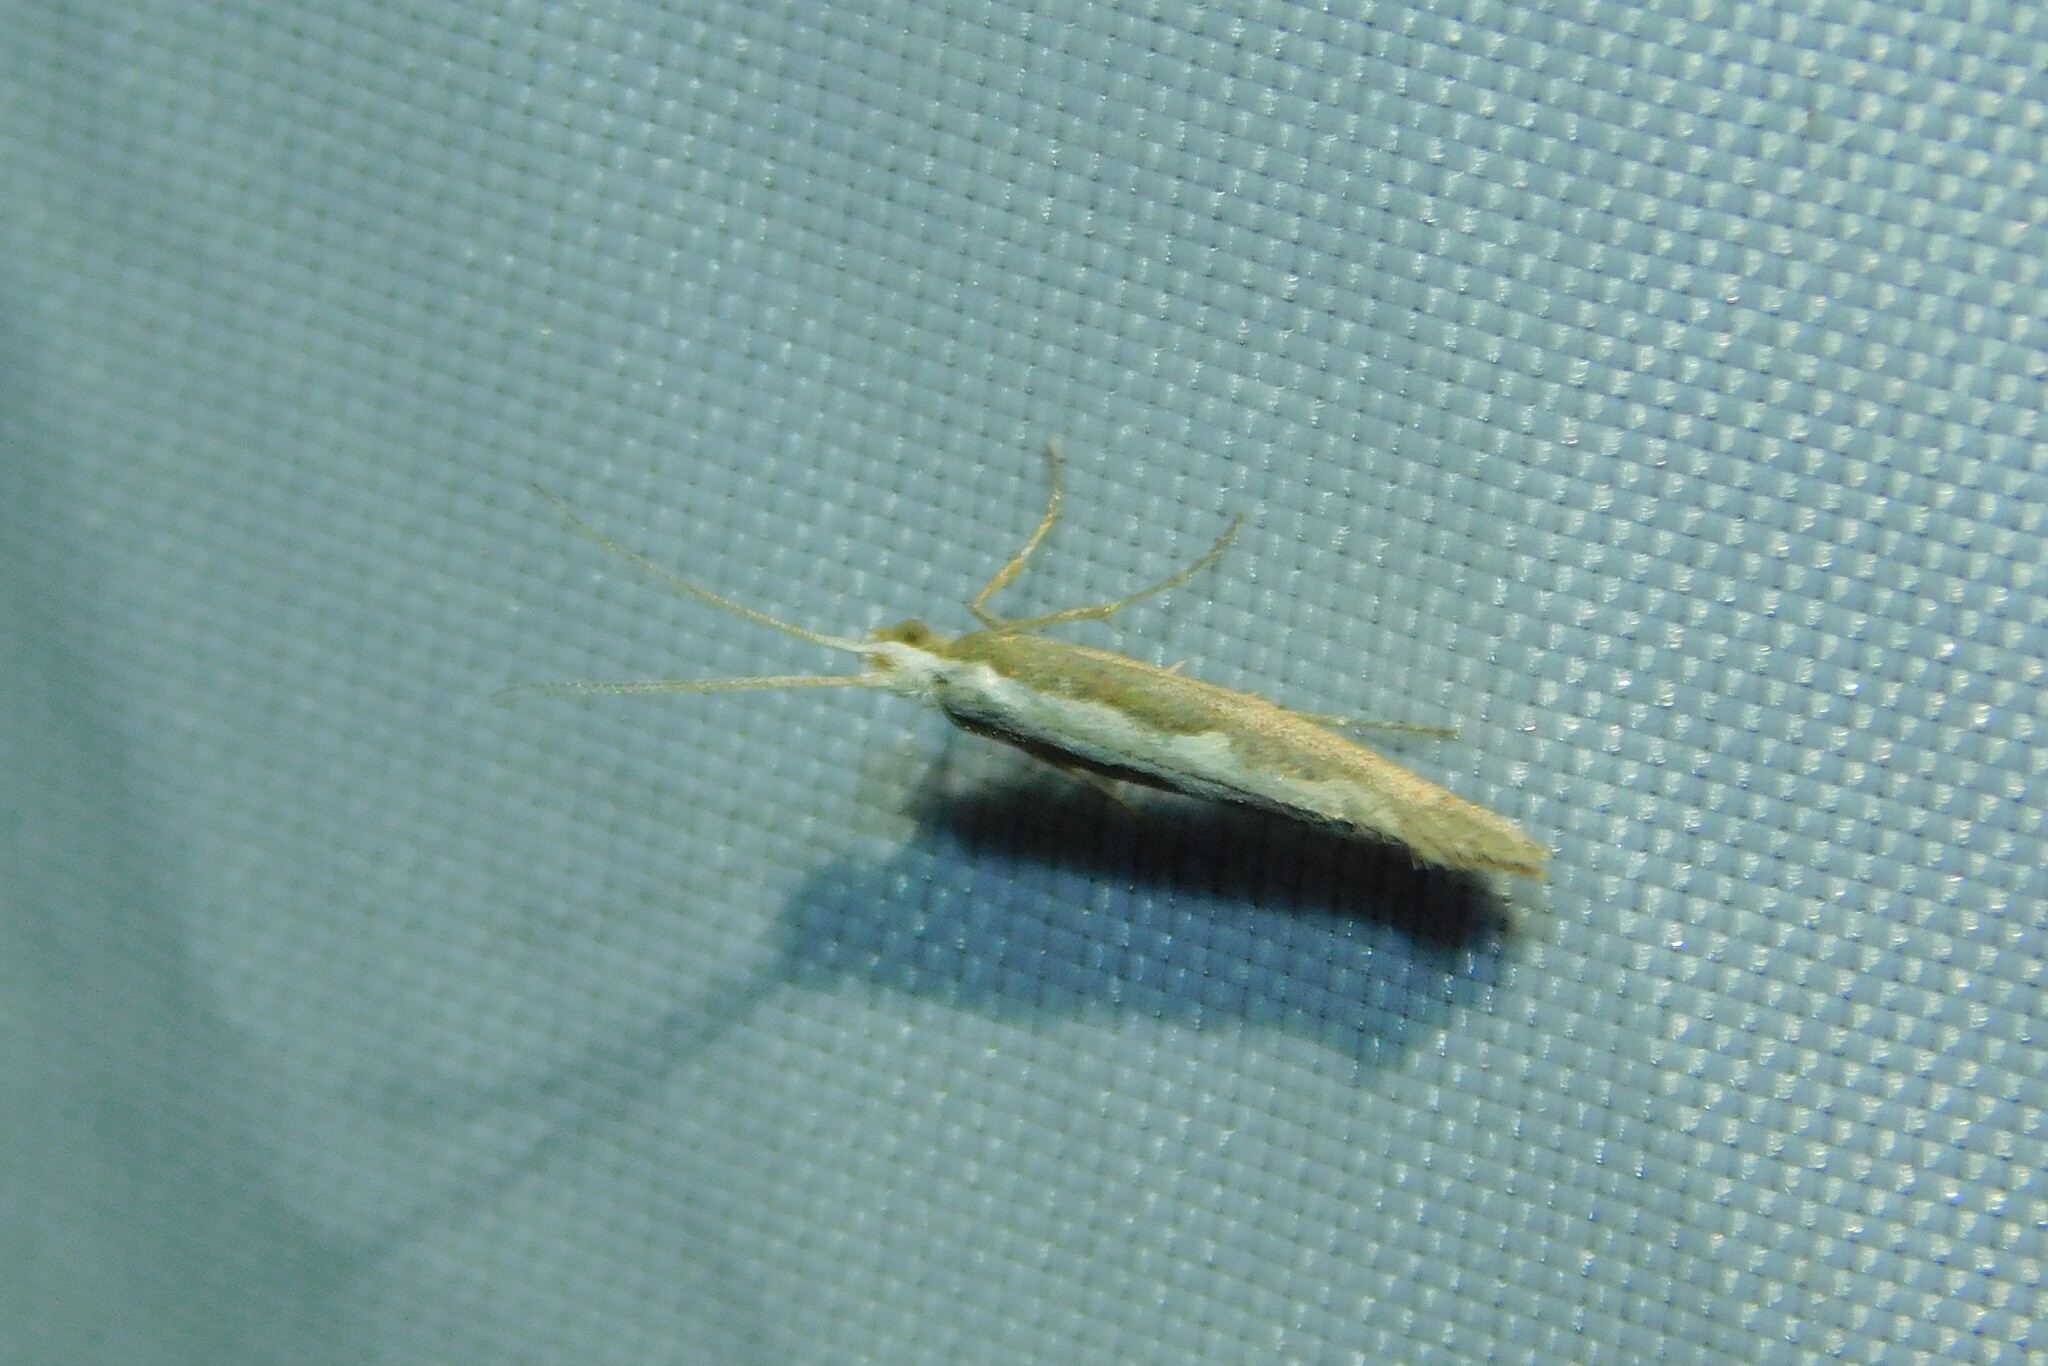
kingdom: Animalia
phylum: Arthropoda
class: Insecta
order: Lepidoptera
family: Plutellidae
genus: Plutella
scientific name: Plutella xylostella
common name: Diamond-back moth
